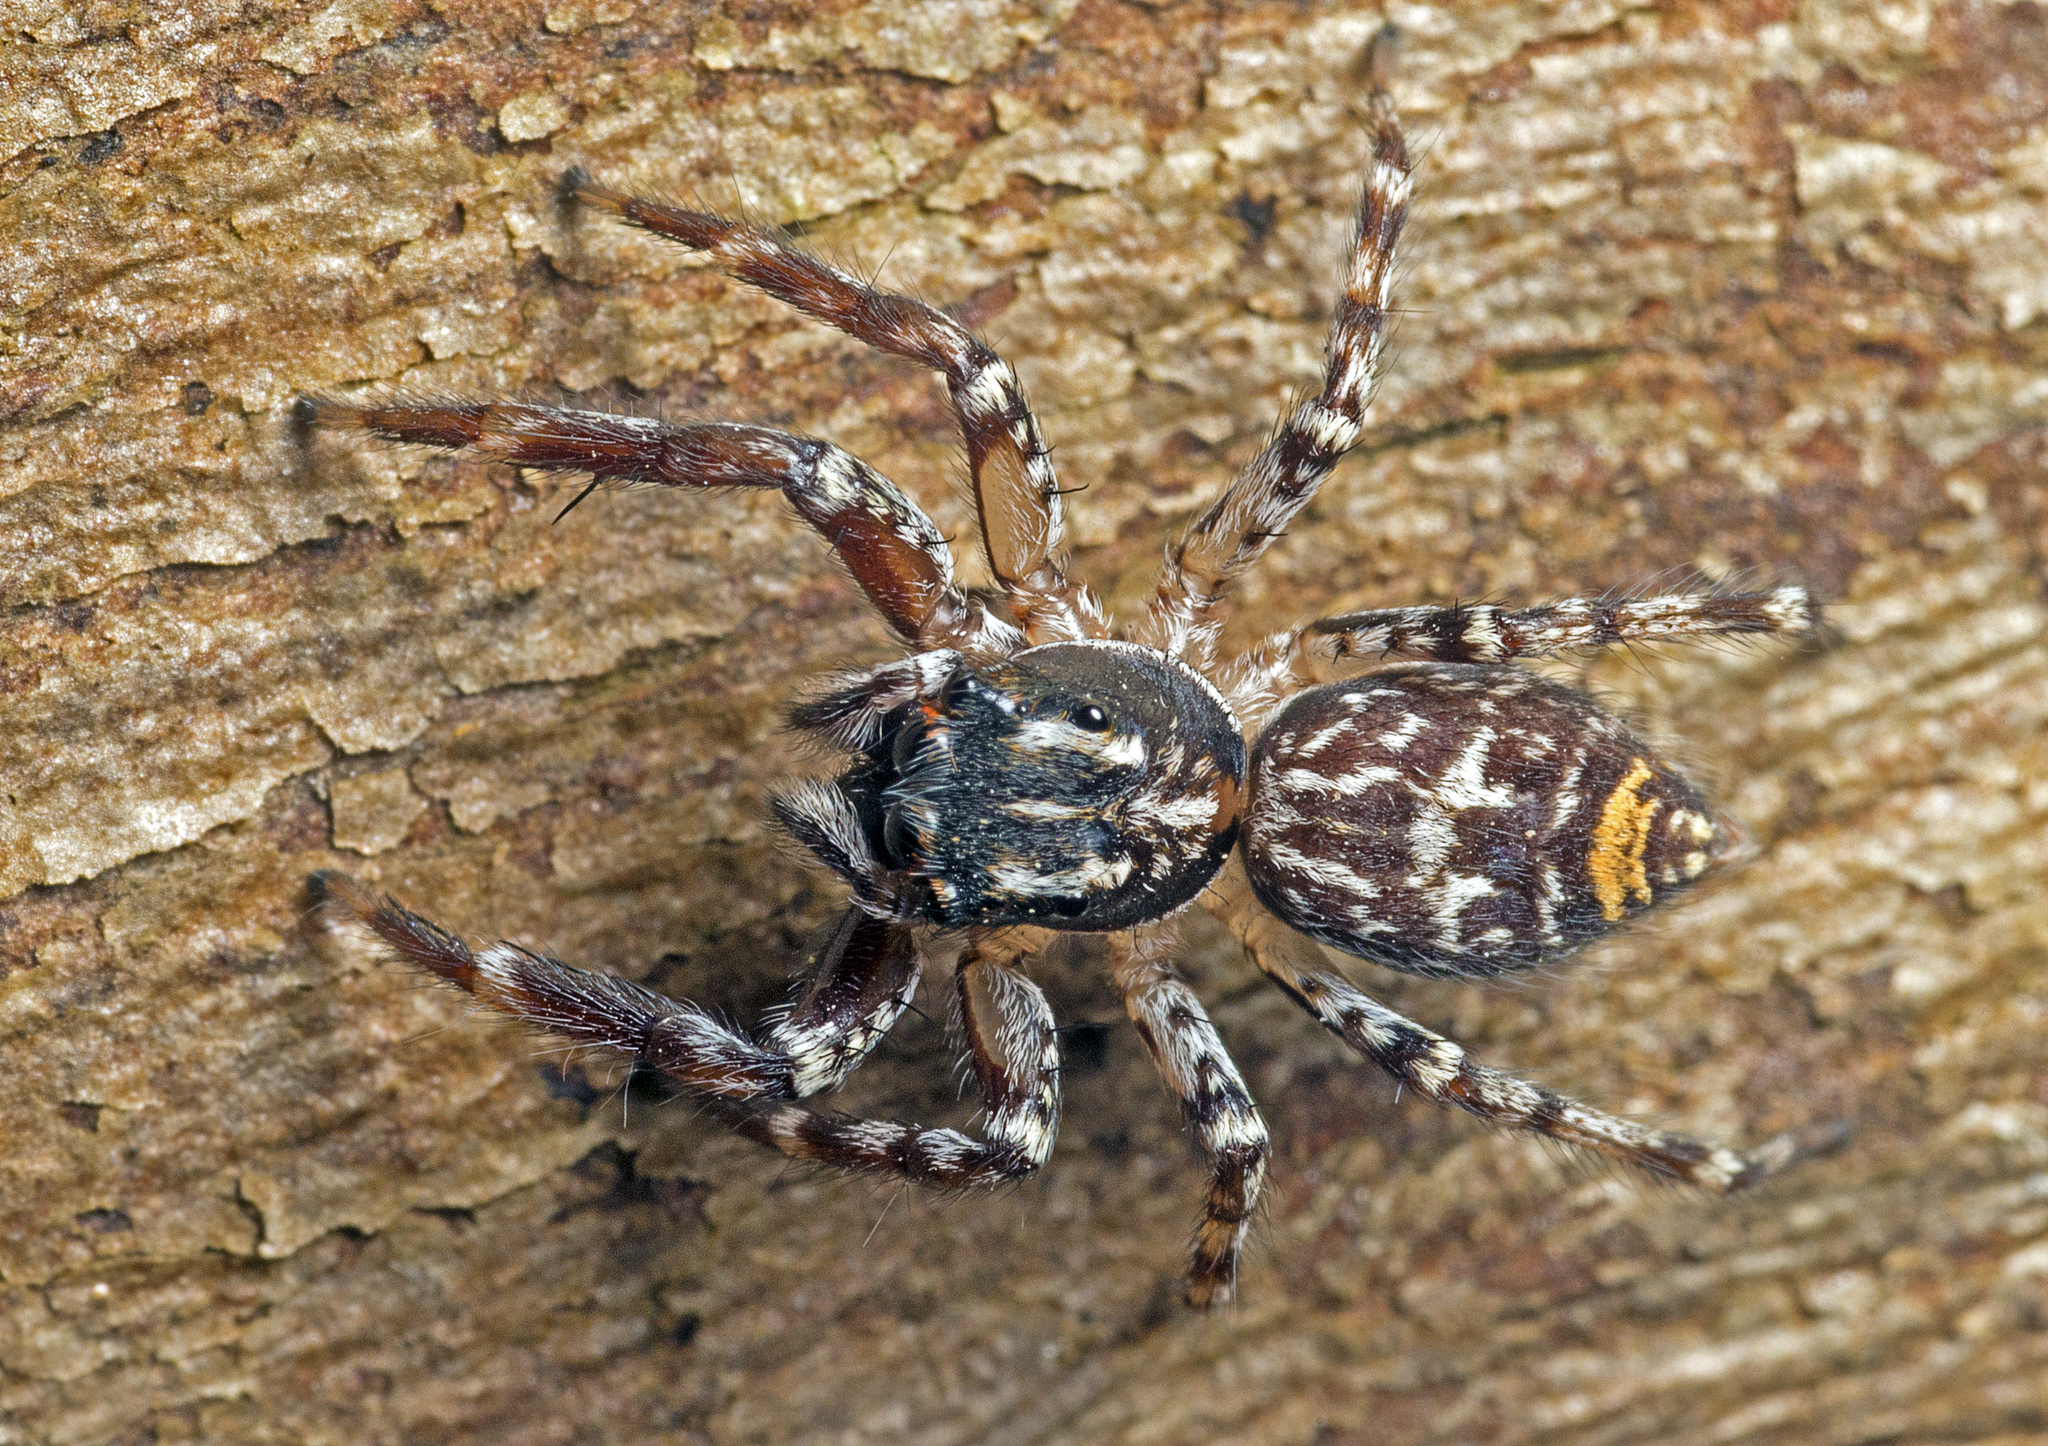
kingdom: Animalia
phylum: Arthropoda
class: Arachnida
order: Araneae
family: Salticidae
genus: Astia
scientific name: Astia
